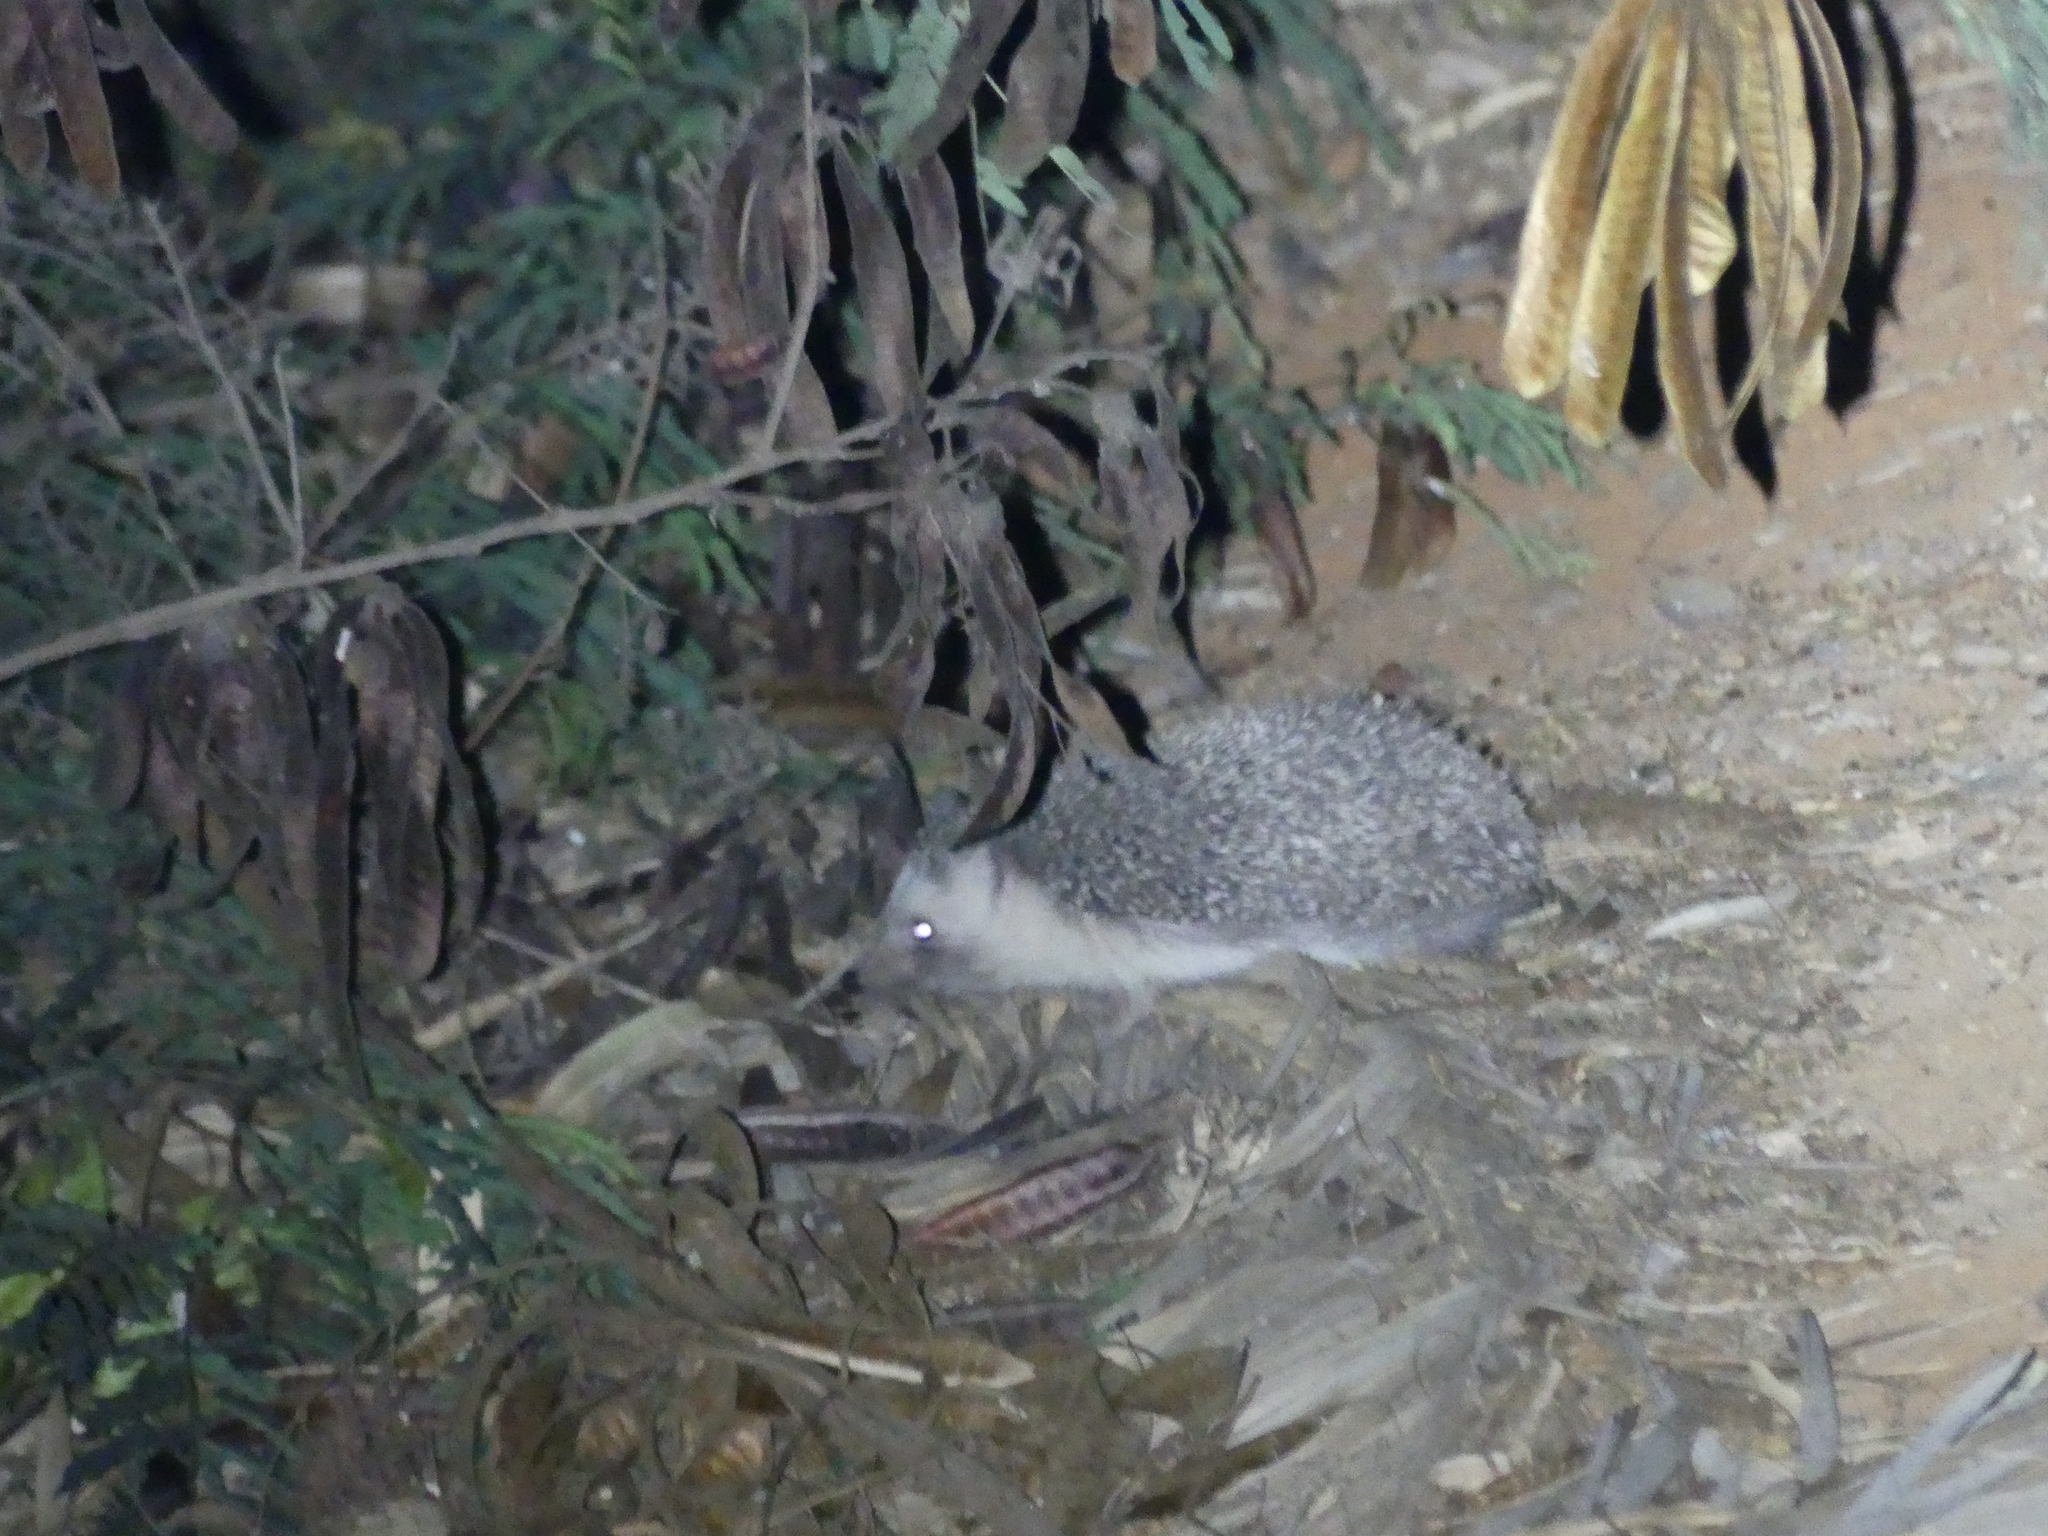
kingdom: Animalia
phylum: Chordata
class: Mammalia
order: Erinaceomorpha
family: Erinaceidae
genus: Atelerix
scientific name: Atelerix algirus
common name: North african hedgehog
